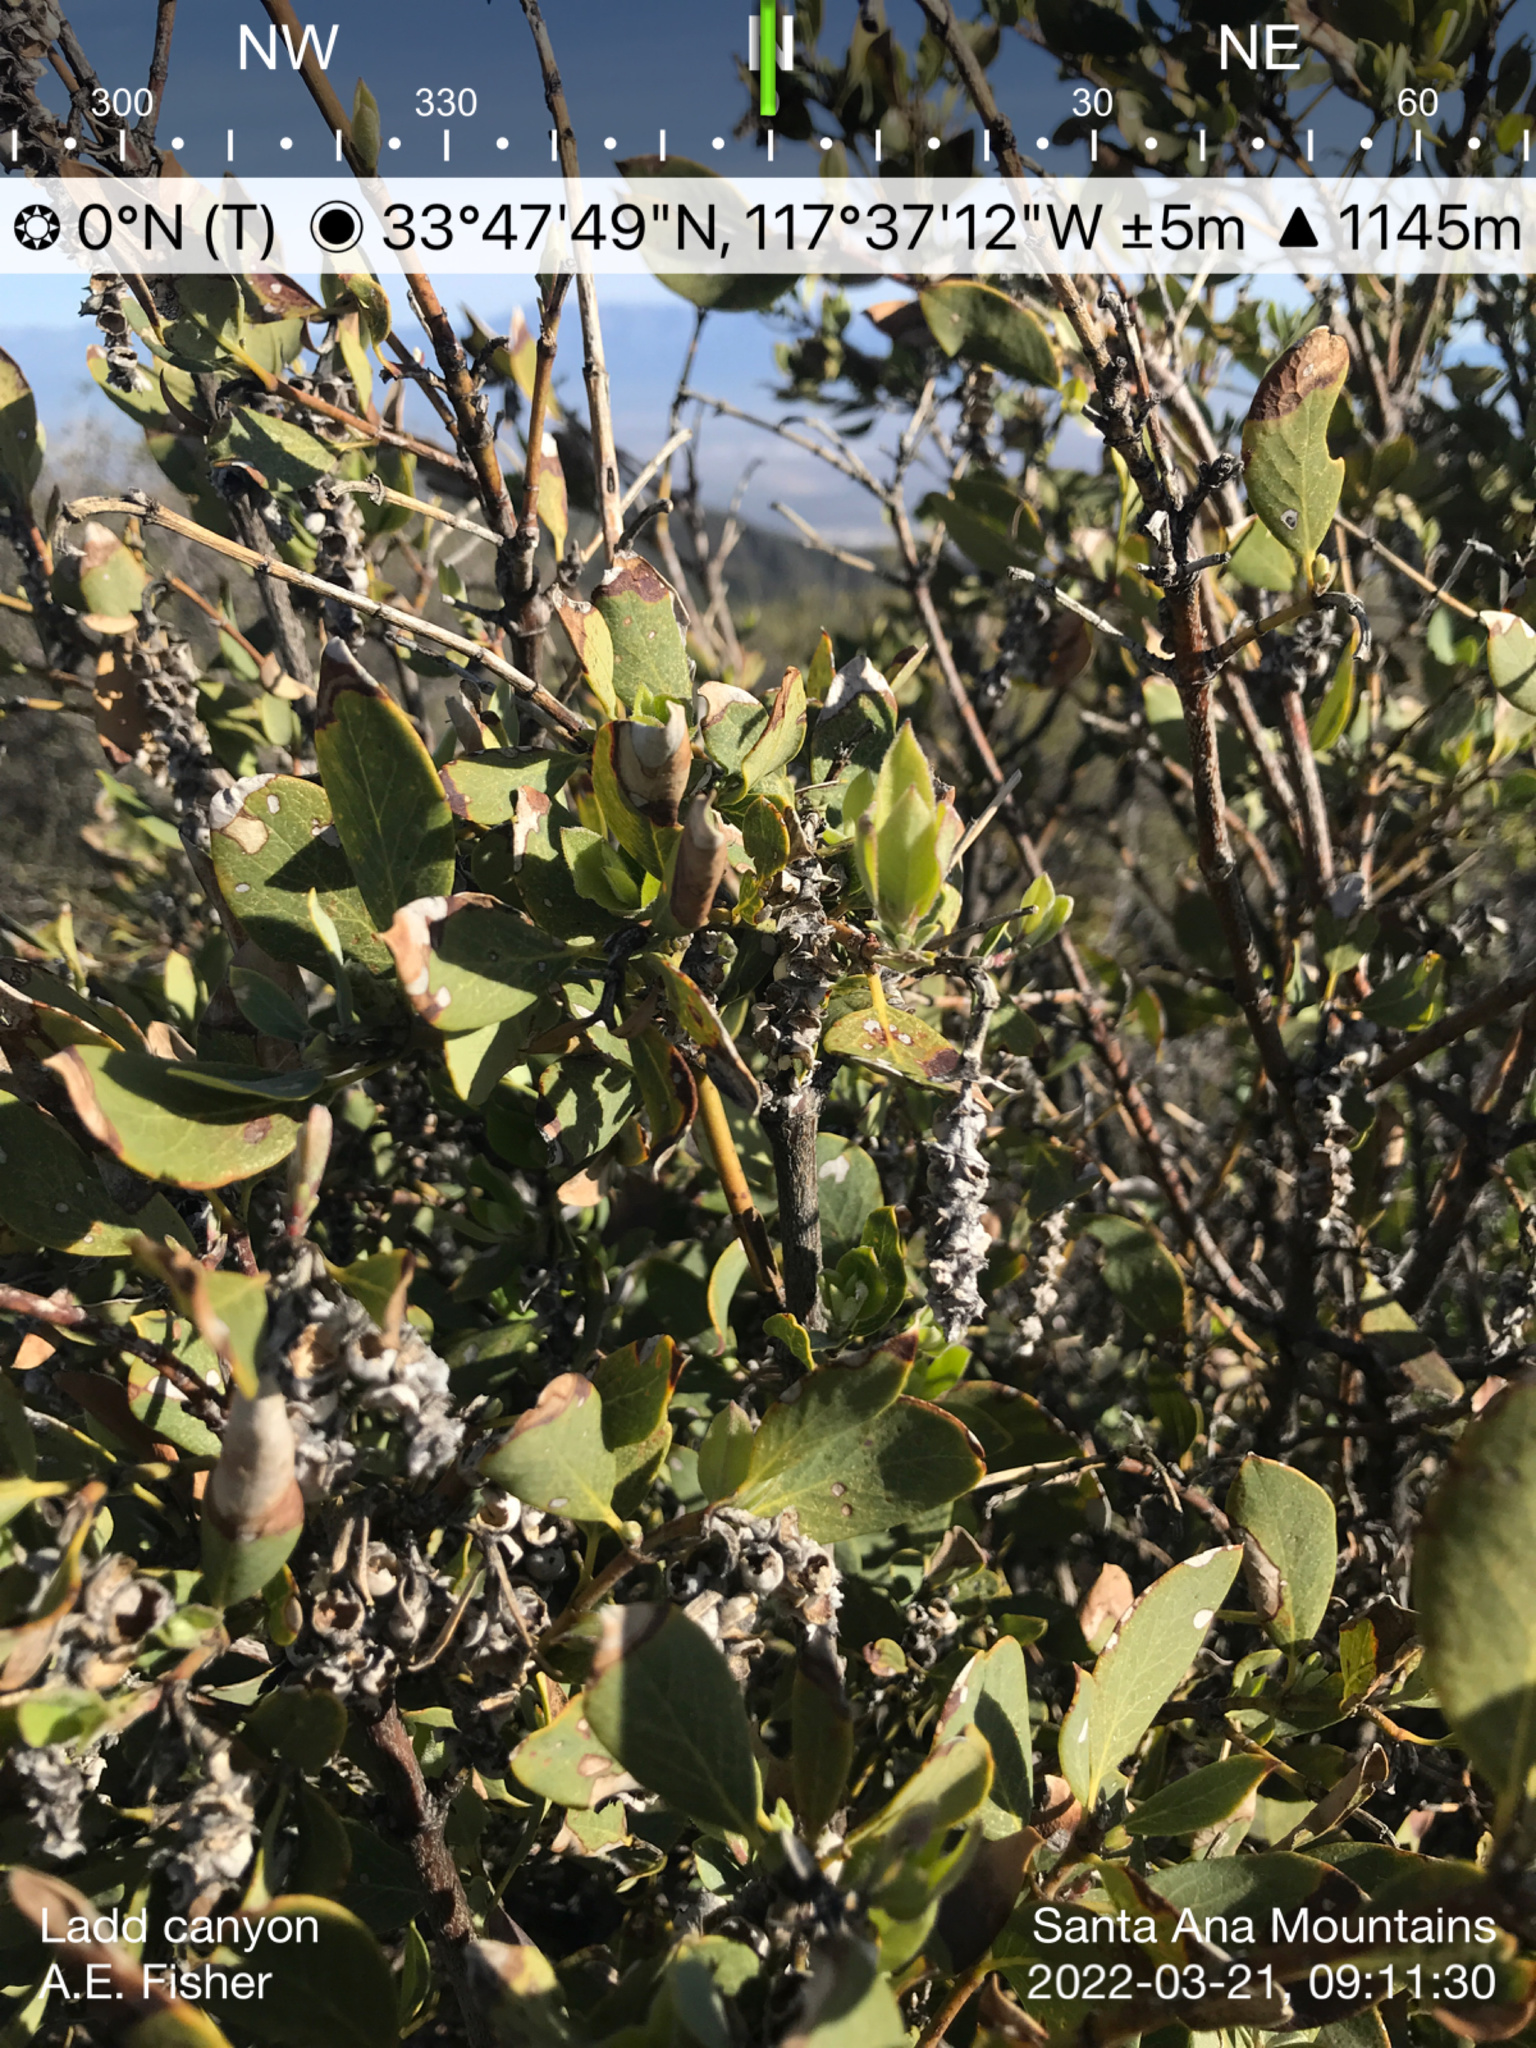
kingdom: Plantae
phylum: Tracheophyta
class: Magnoliopsida
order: Garryales
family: Garryaceae
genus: Garrya
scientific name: Garrya flavescens
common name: Ashy silk-tassel
